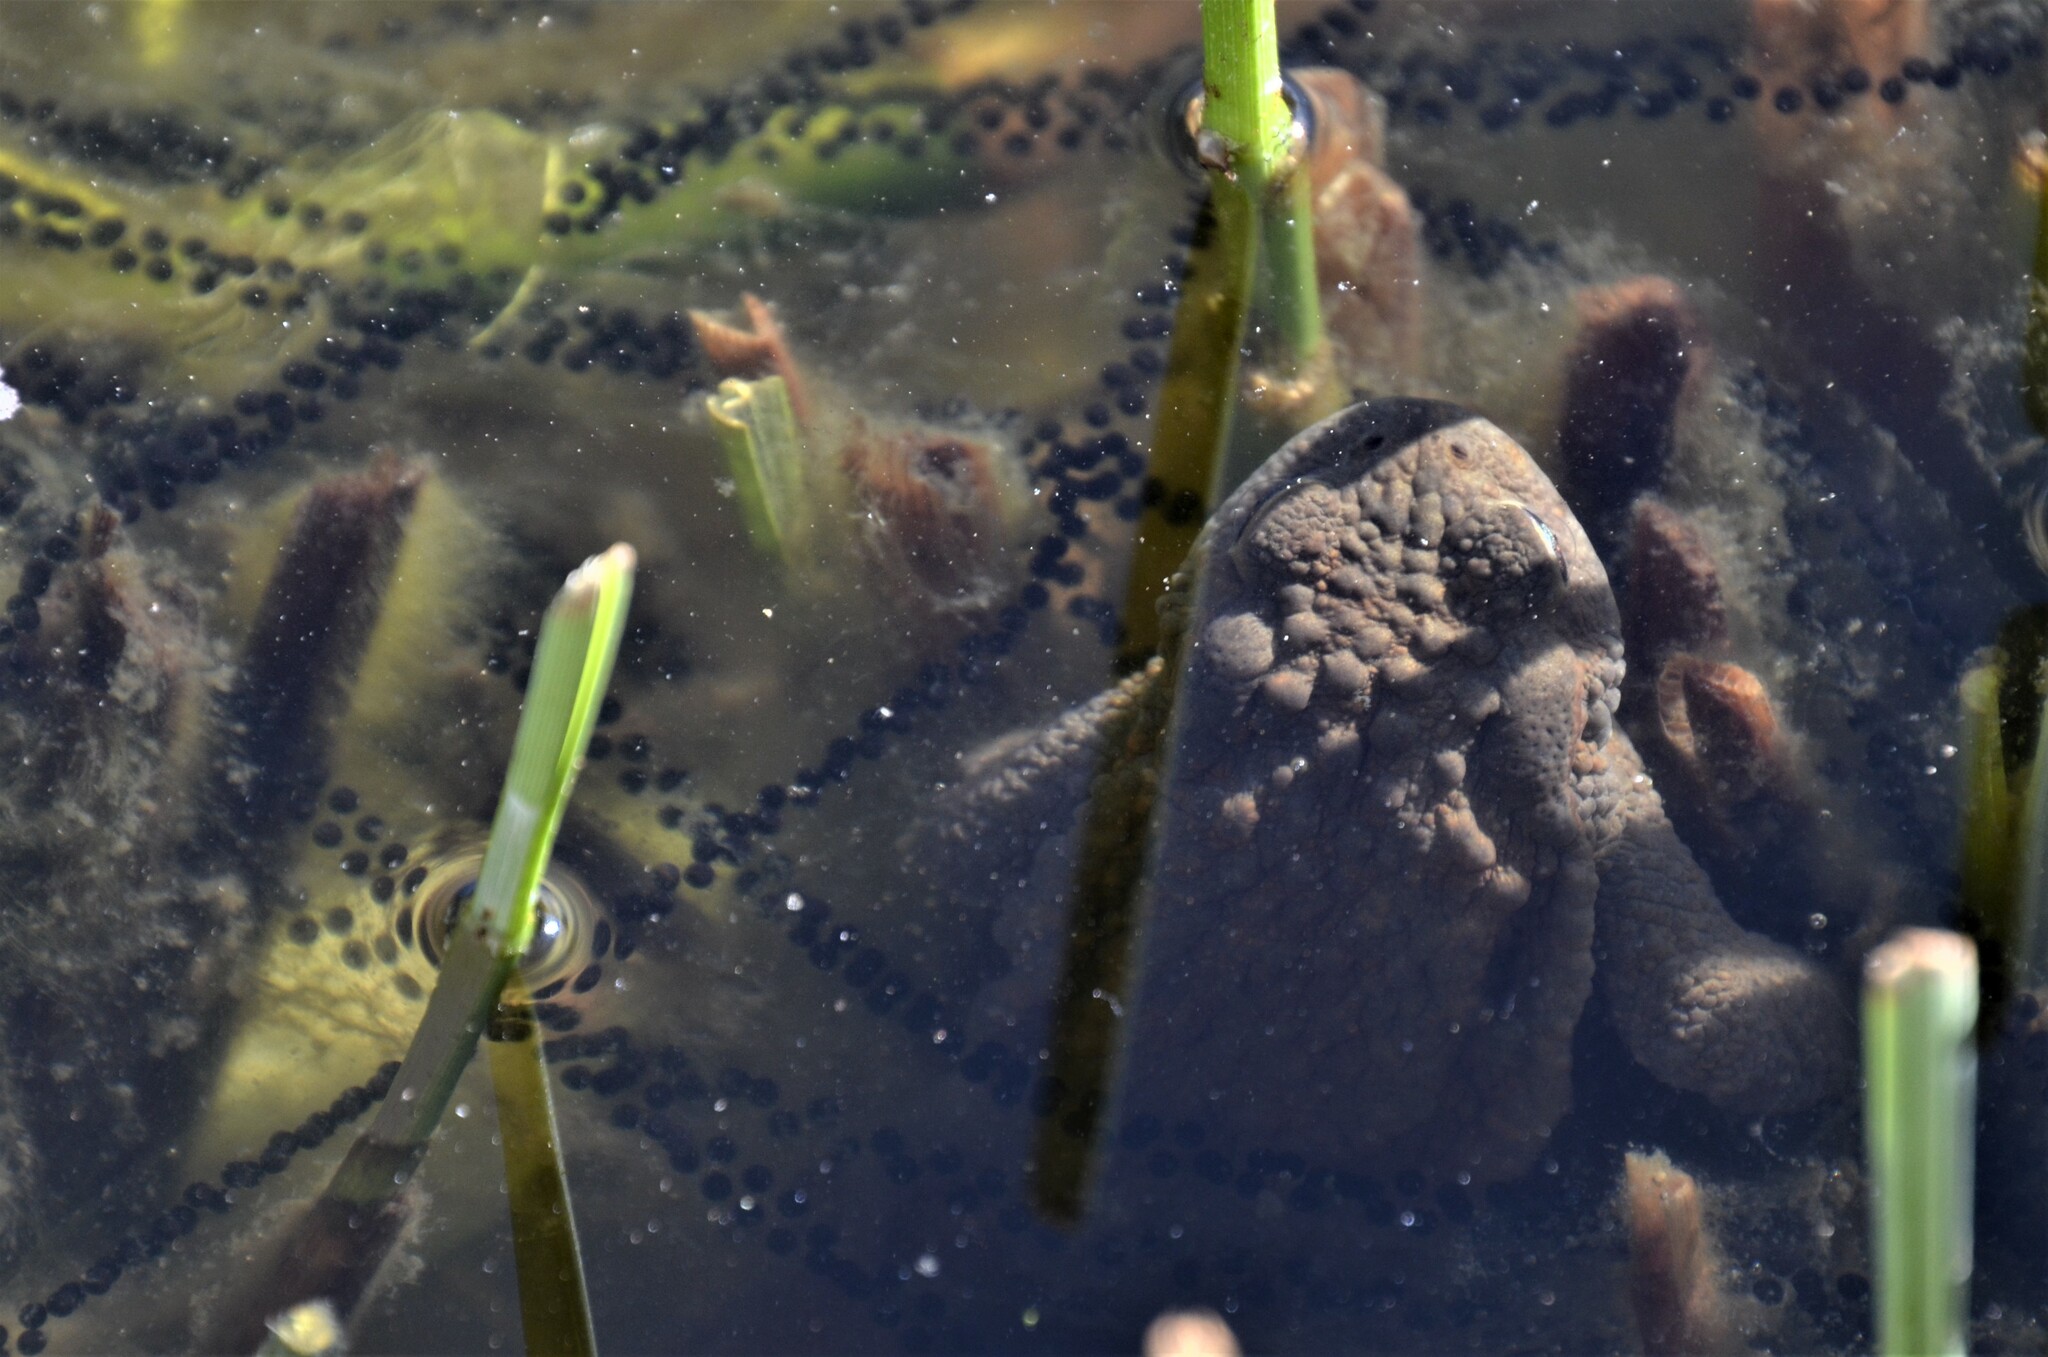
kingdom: Animalia
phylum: Chordata
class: Amphibia
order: Anura
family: Bufonidae
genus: Bufo
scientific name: Bufo bufo
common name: Common toad
